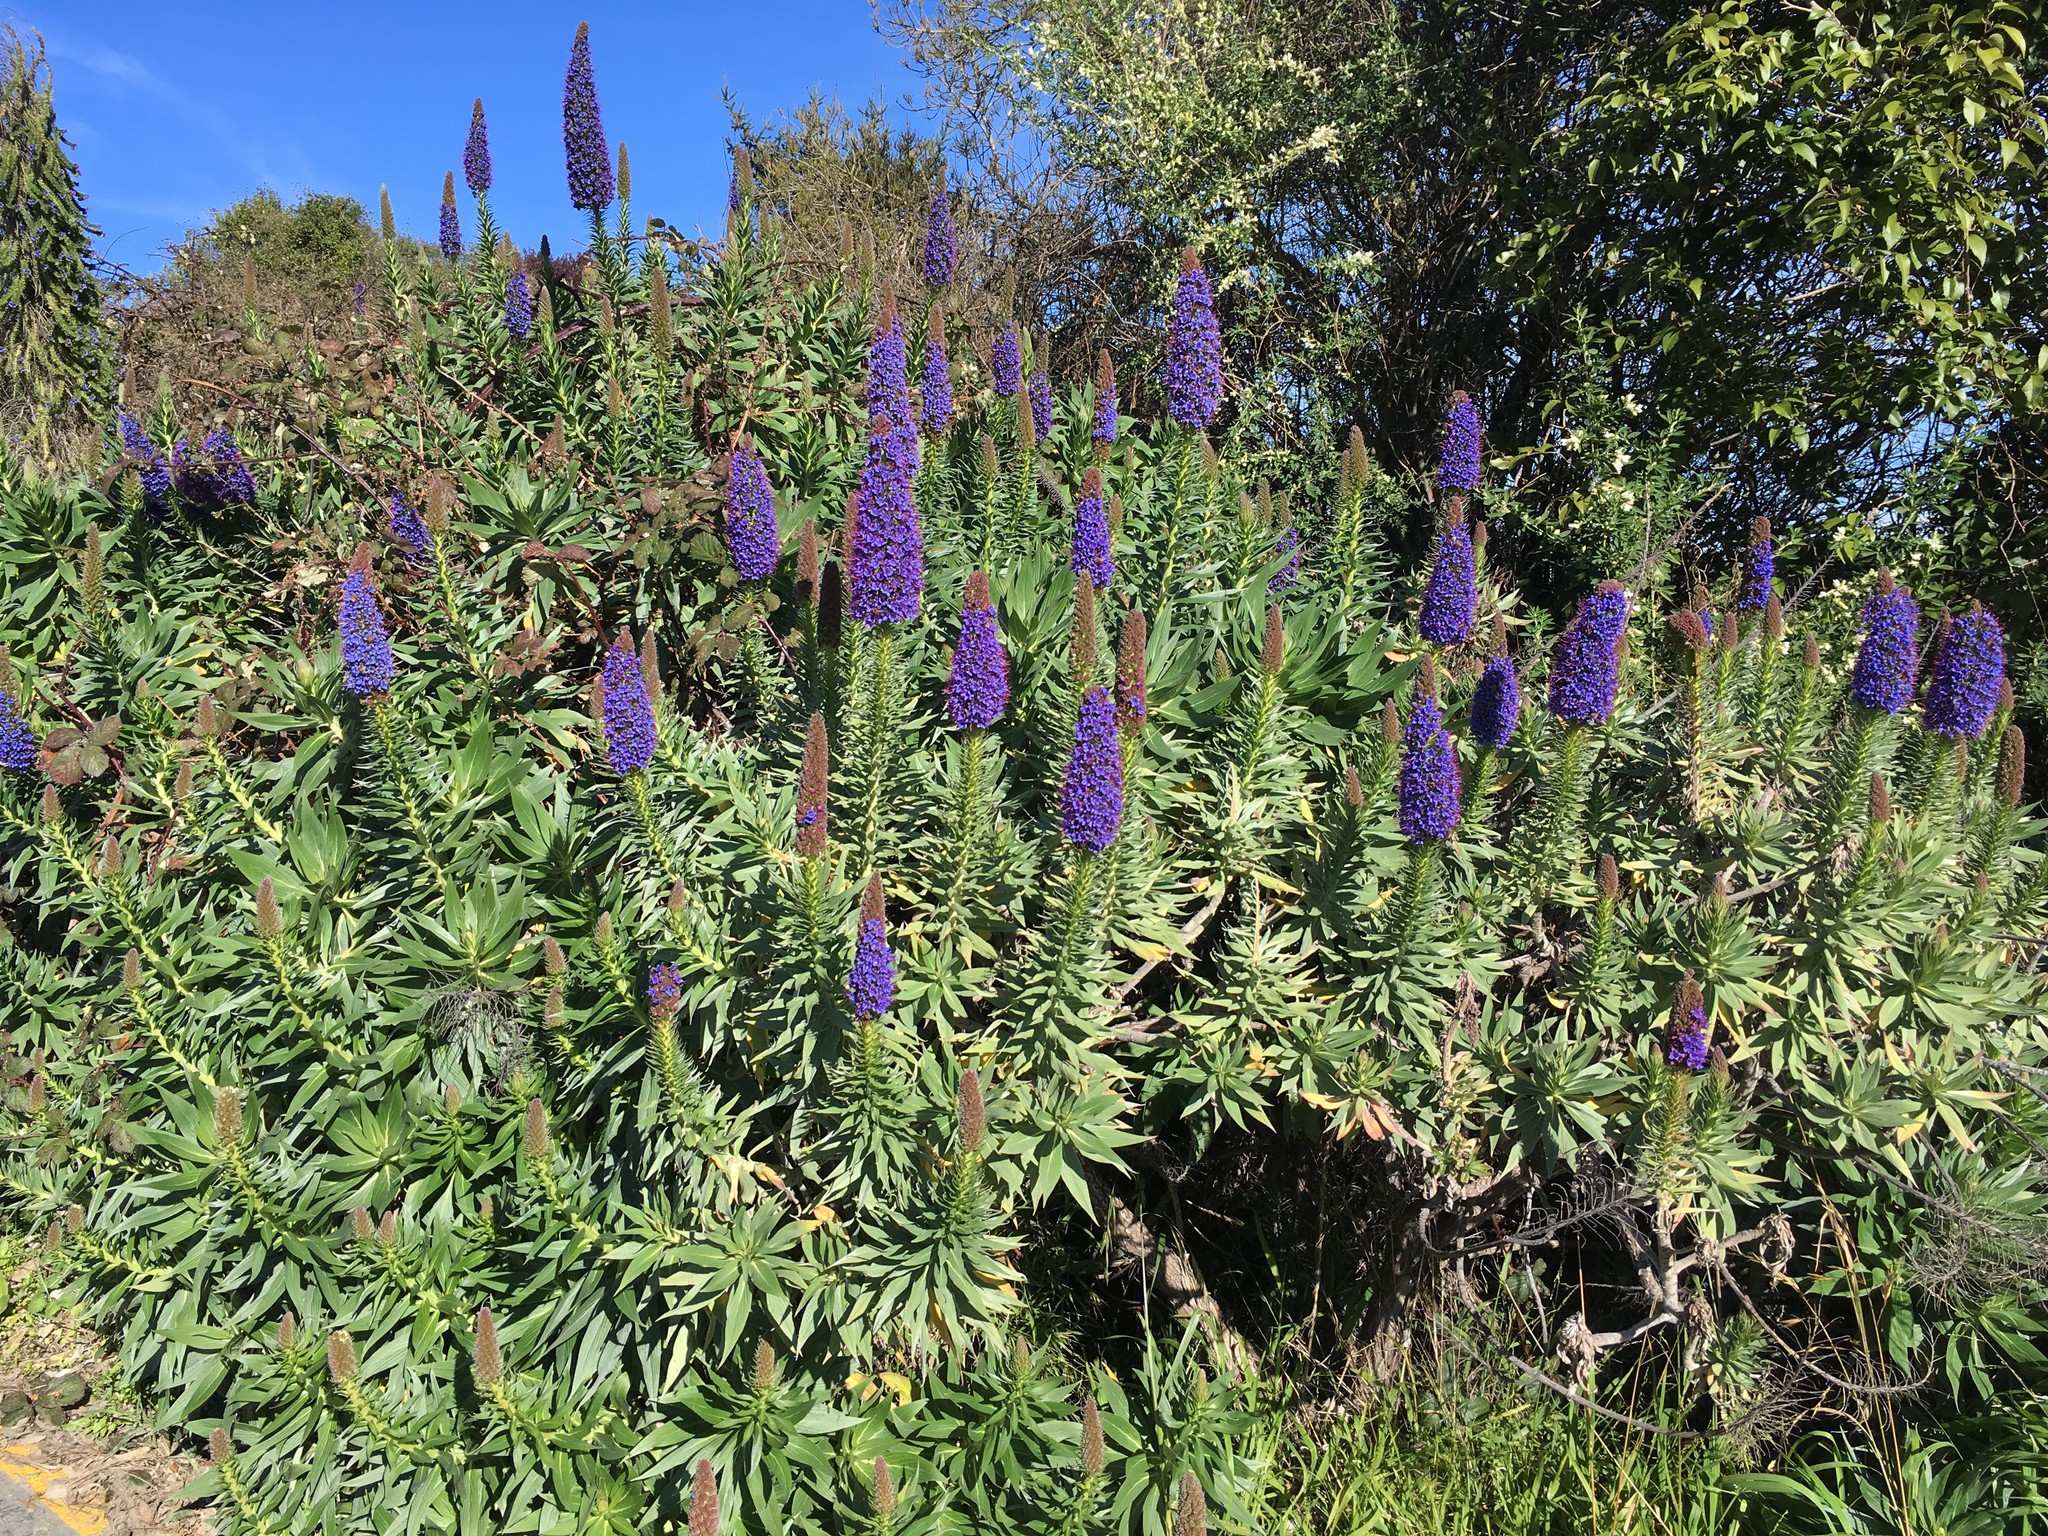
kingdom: Plantae
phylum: Tracheophyta
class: Magnoliopsida
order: Boraginales
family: Boraginaceae
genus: Echium
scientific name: Echium candicans
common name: Pride of madeira
